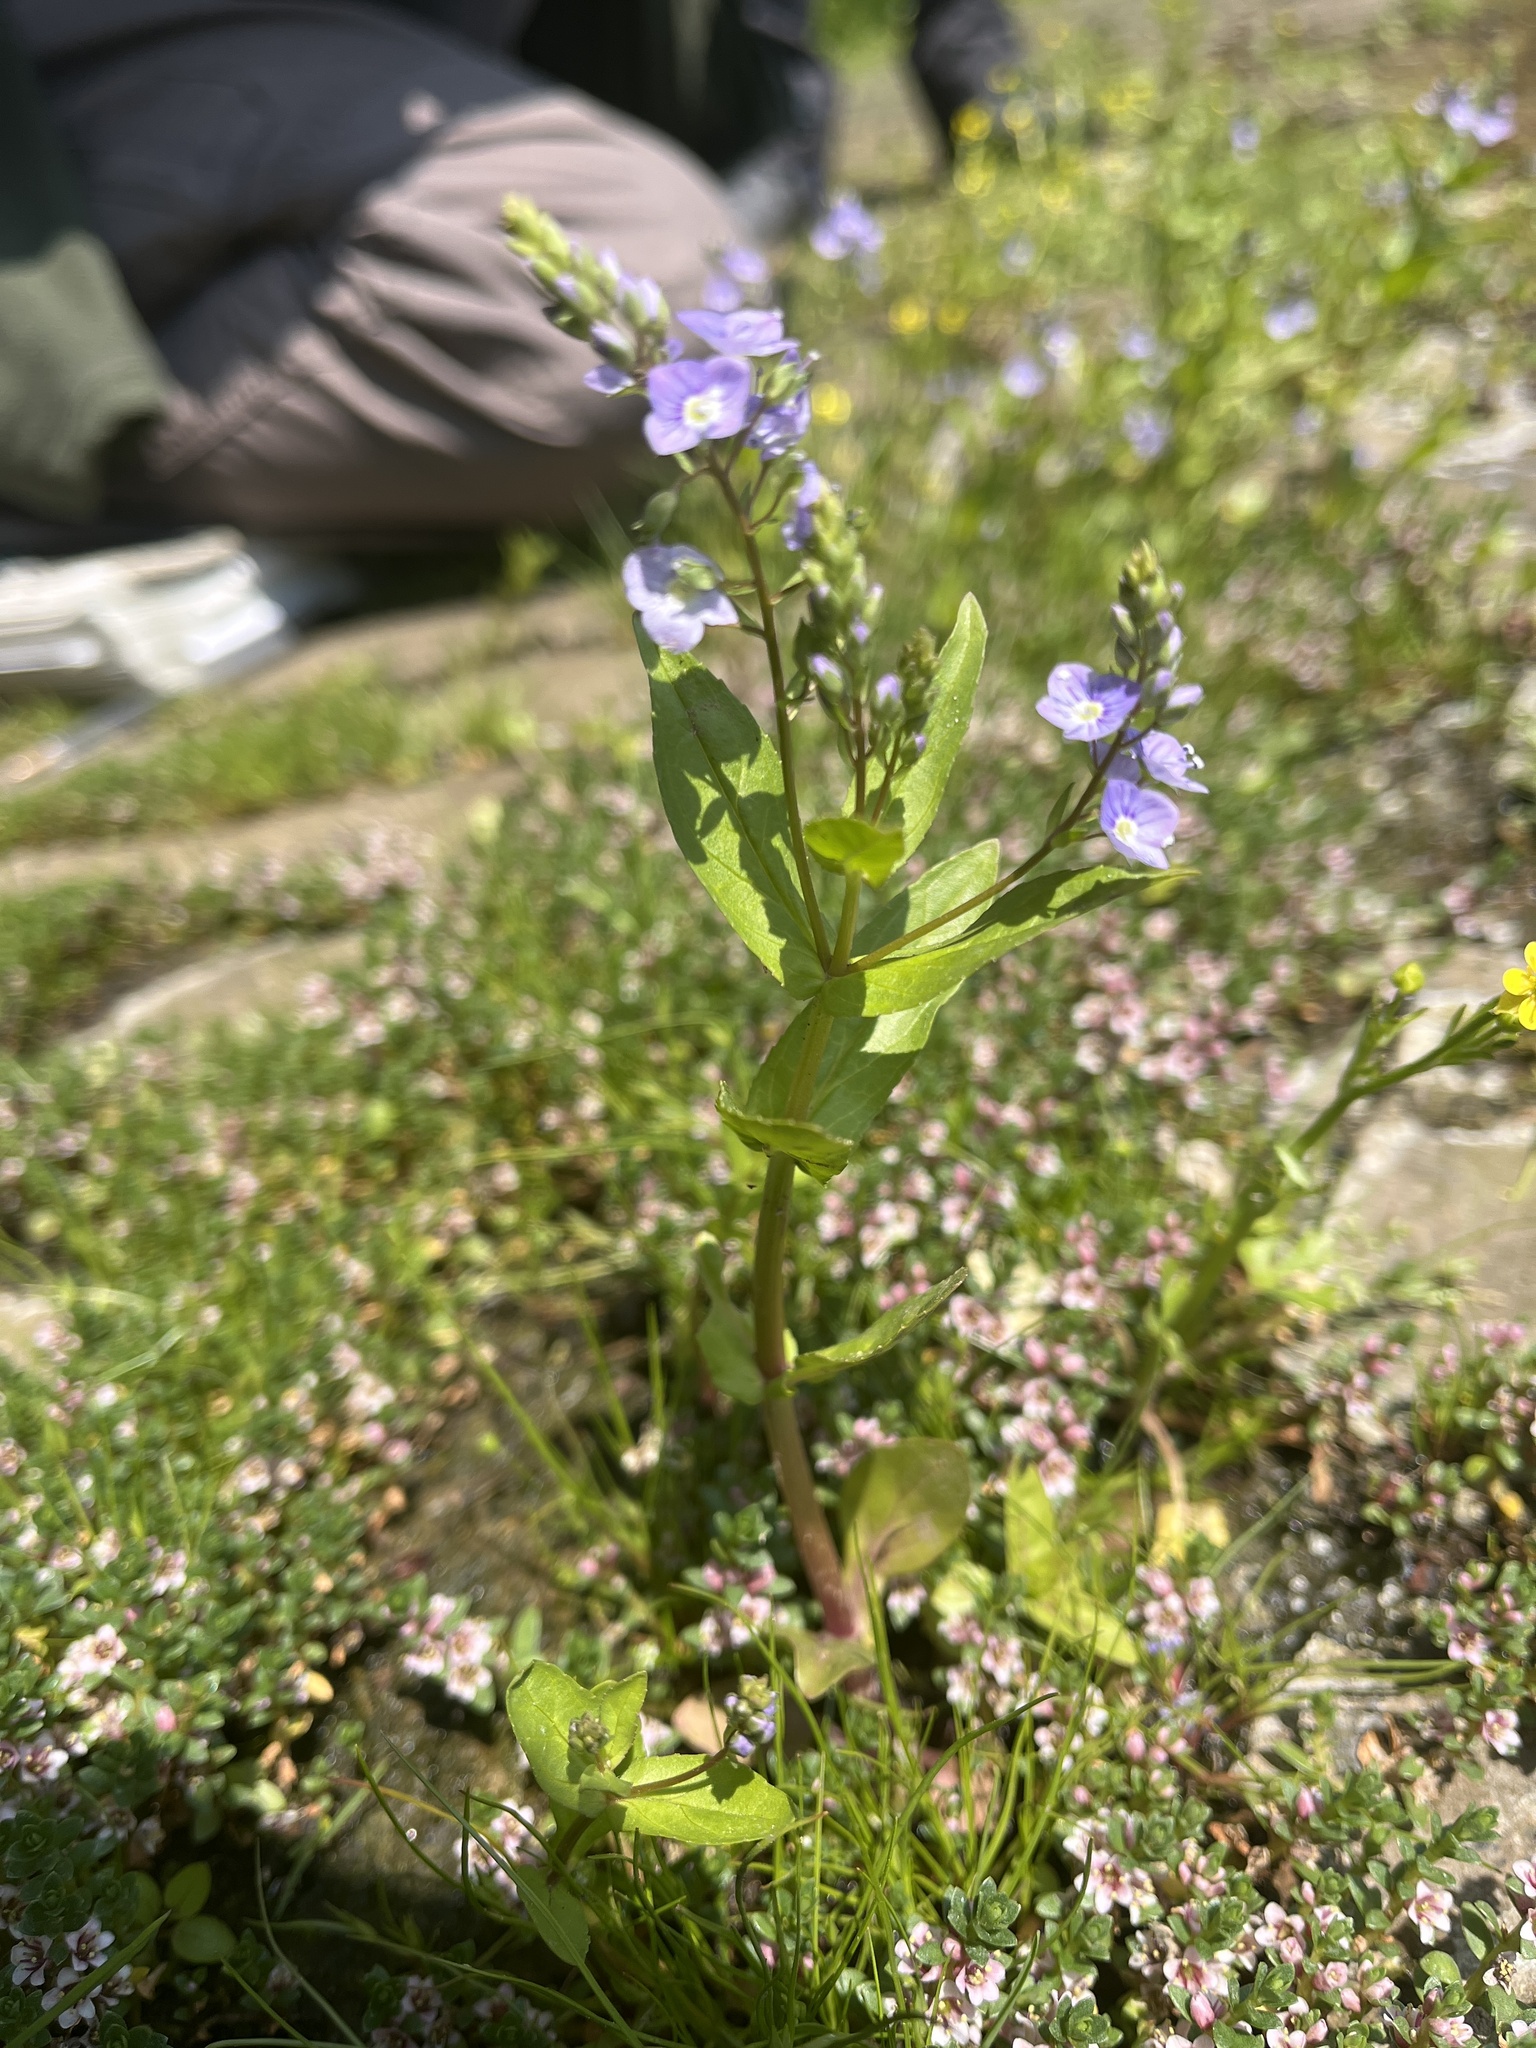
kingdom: Plantae
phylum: Tracheophyta
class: Magnoliopsida
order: Lamiales
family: Plantaginaceae
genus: Veronica
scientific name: Veronica anagallis-aquatica
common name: Water speedwell
